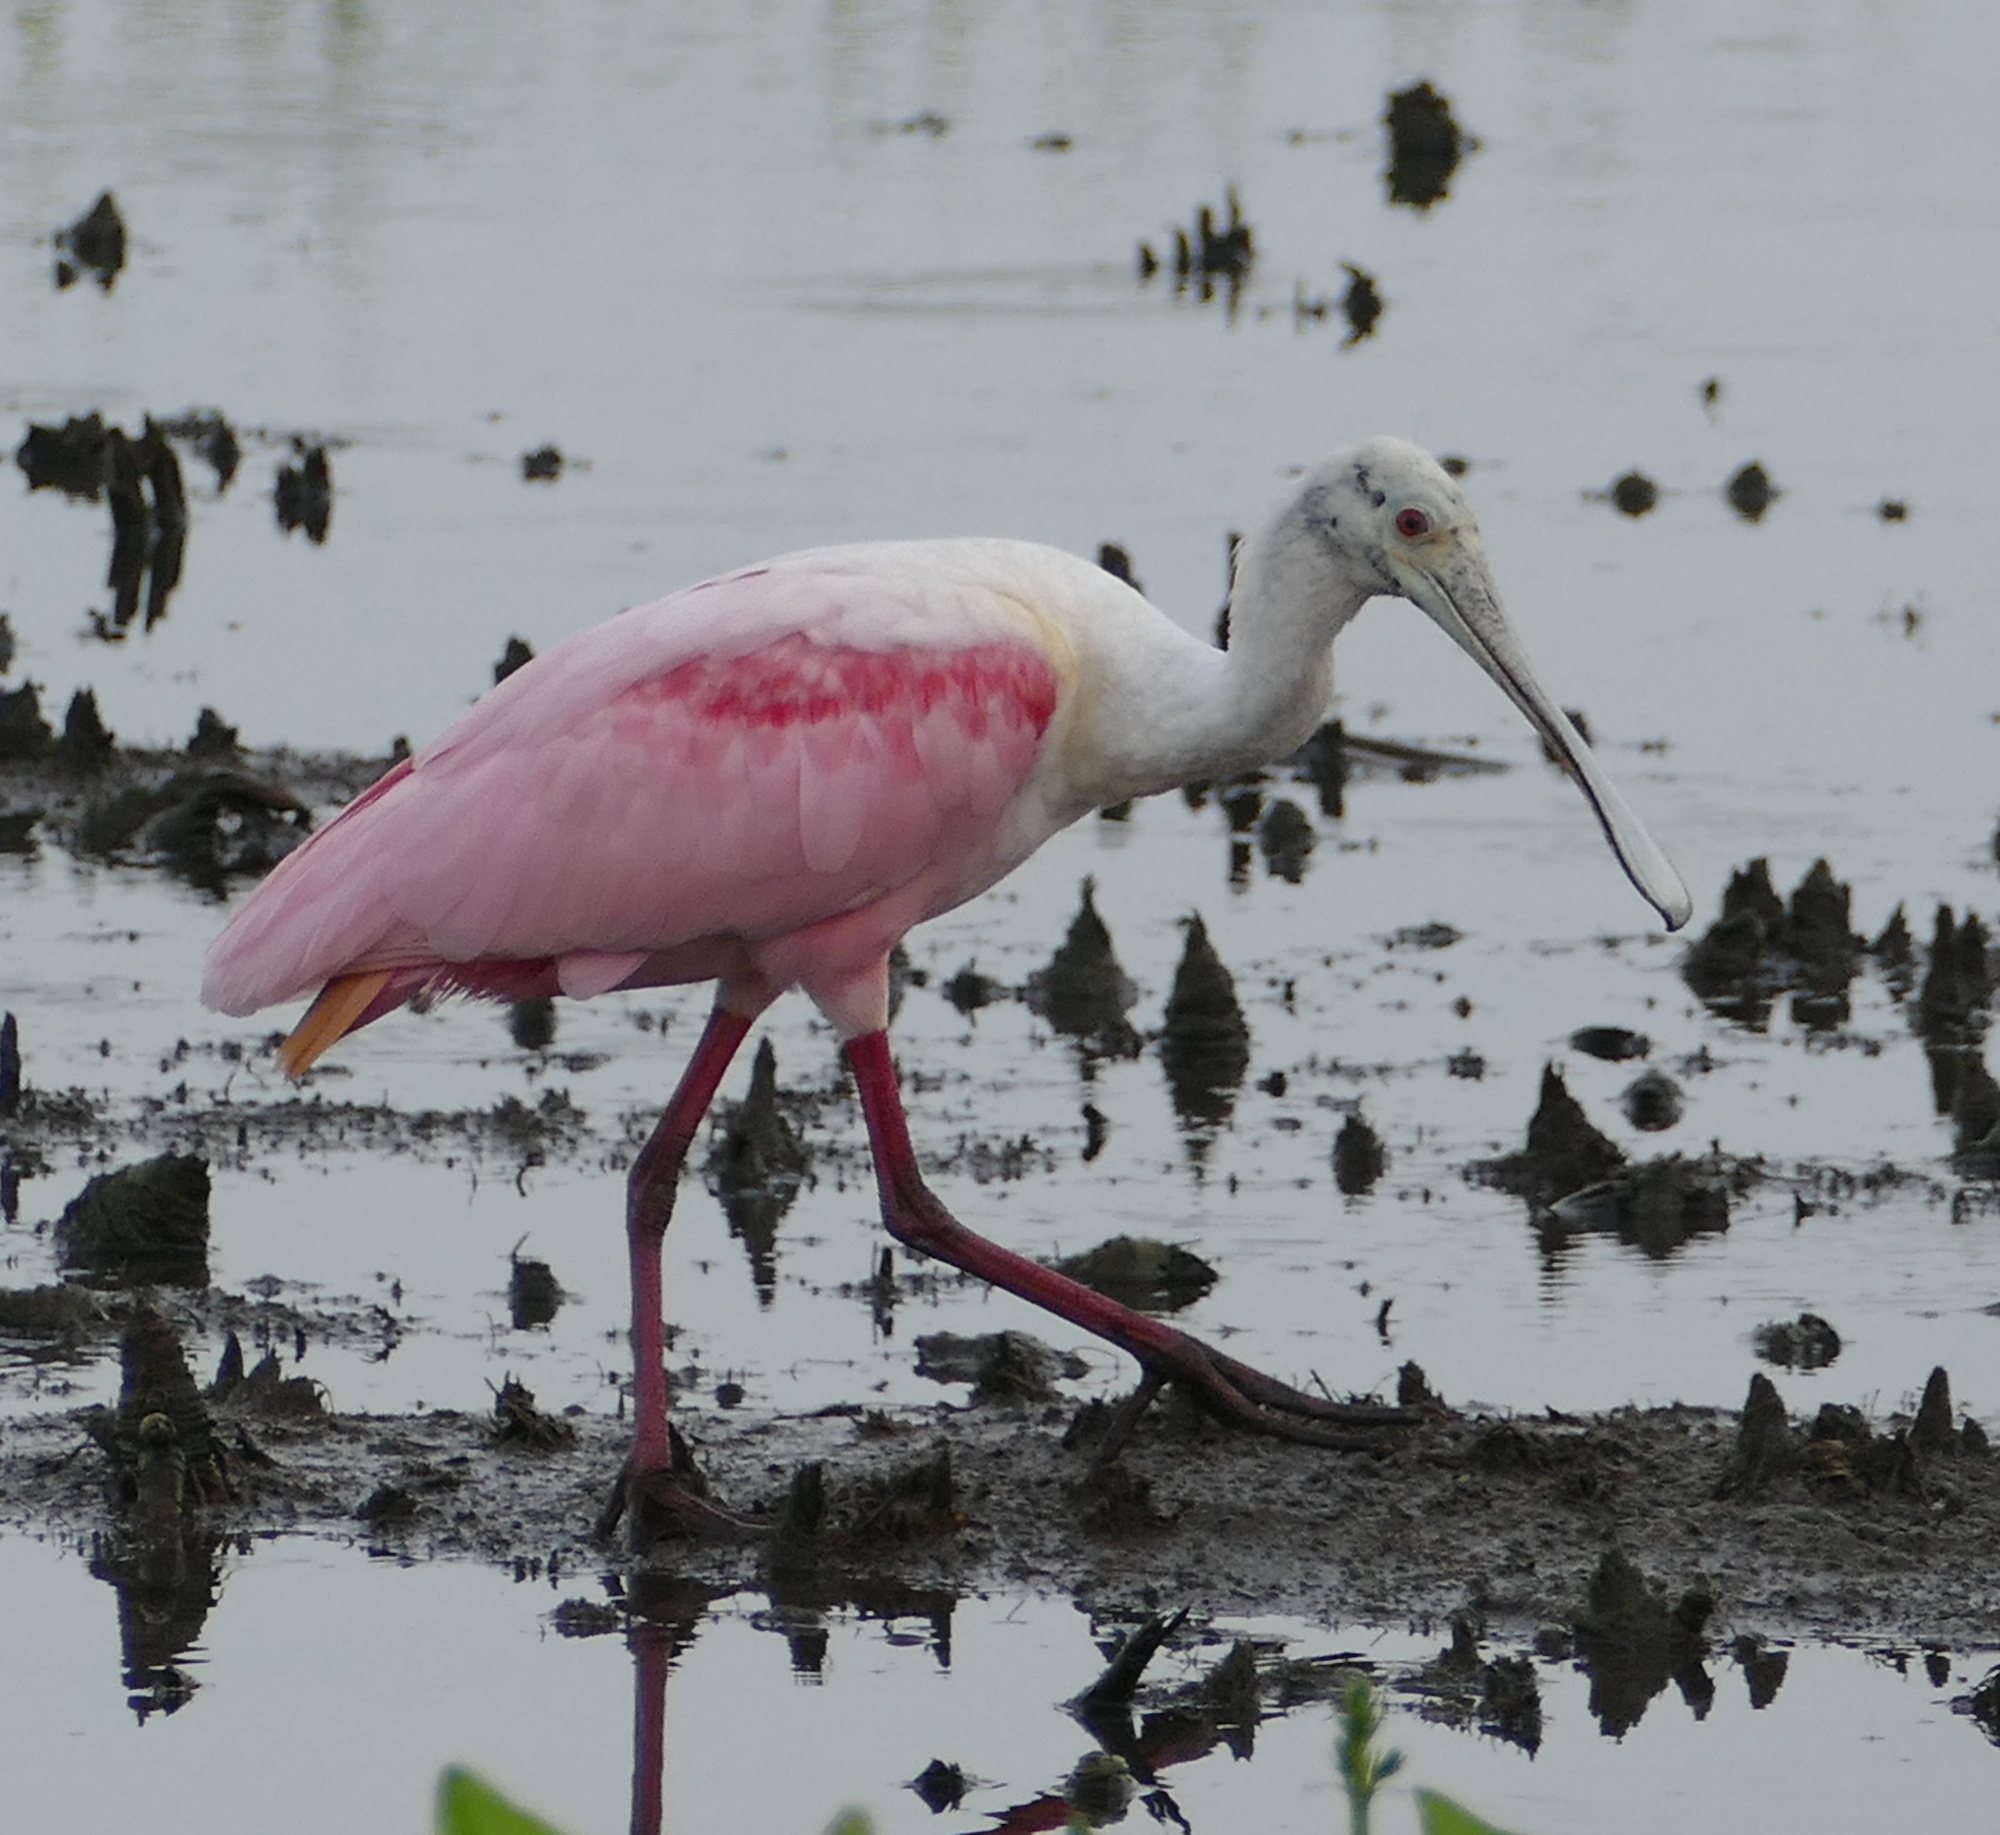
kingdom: Animalia
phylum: Chordata
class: Aves
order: Pelecaniformes
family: Threskiornithidae
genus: Platalea
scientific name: Platalea ajaja
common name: Roseate spoonbill
